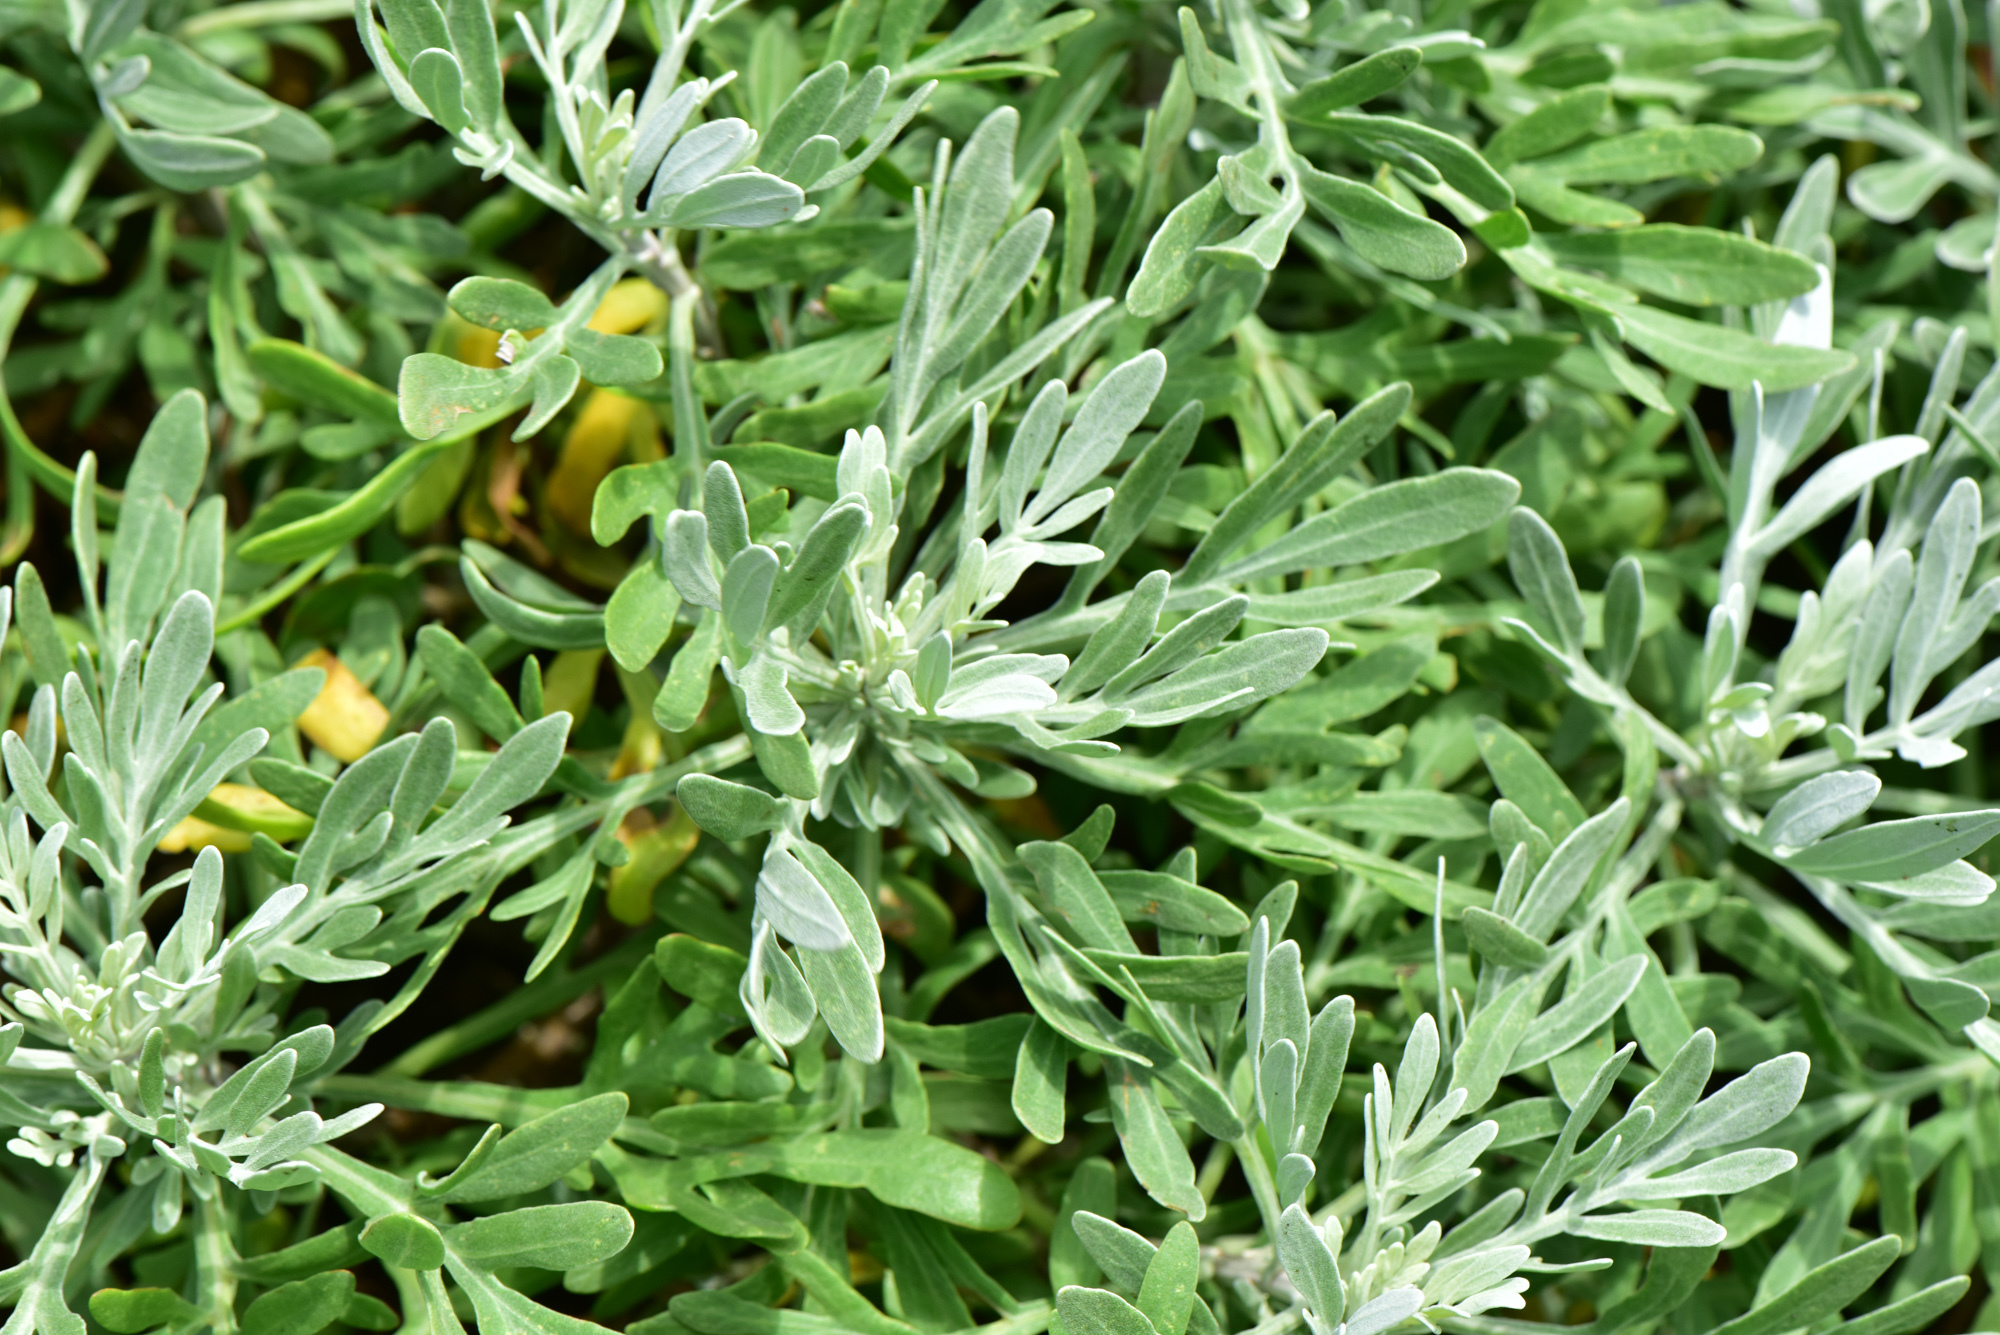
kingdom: Plantae
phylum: Tracheophyta
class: Magnoliopsida
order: Asterales
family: Asteraceae
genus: Crossostephium
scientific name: Crossostephium chinense
